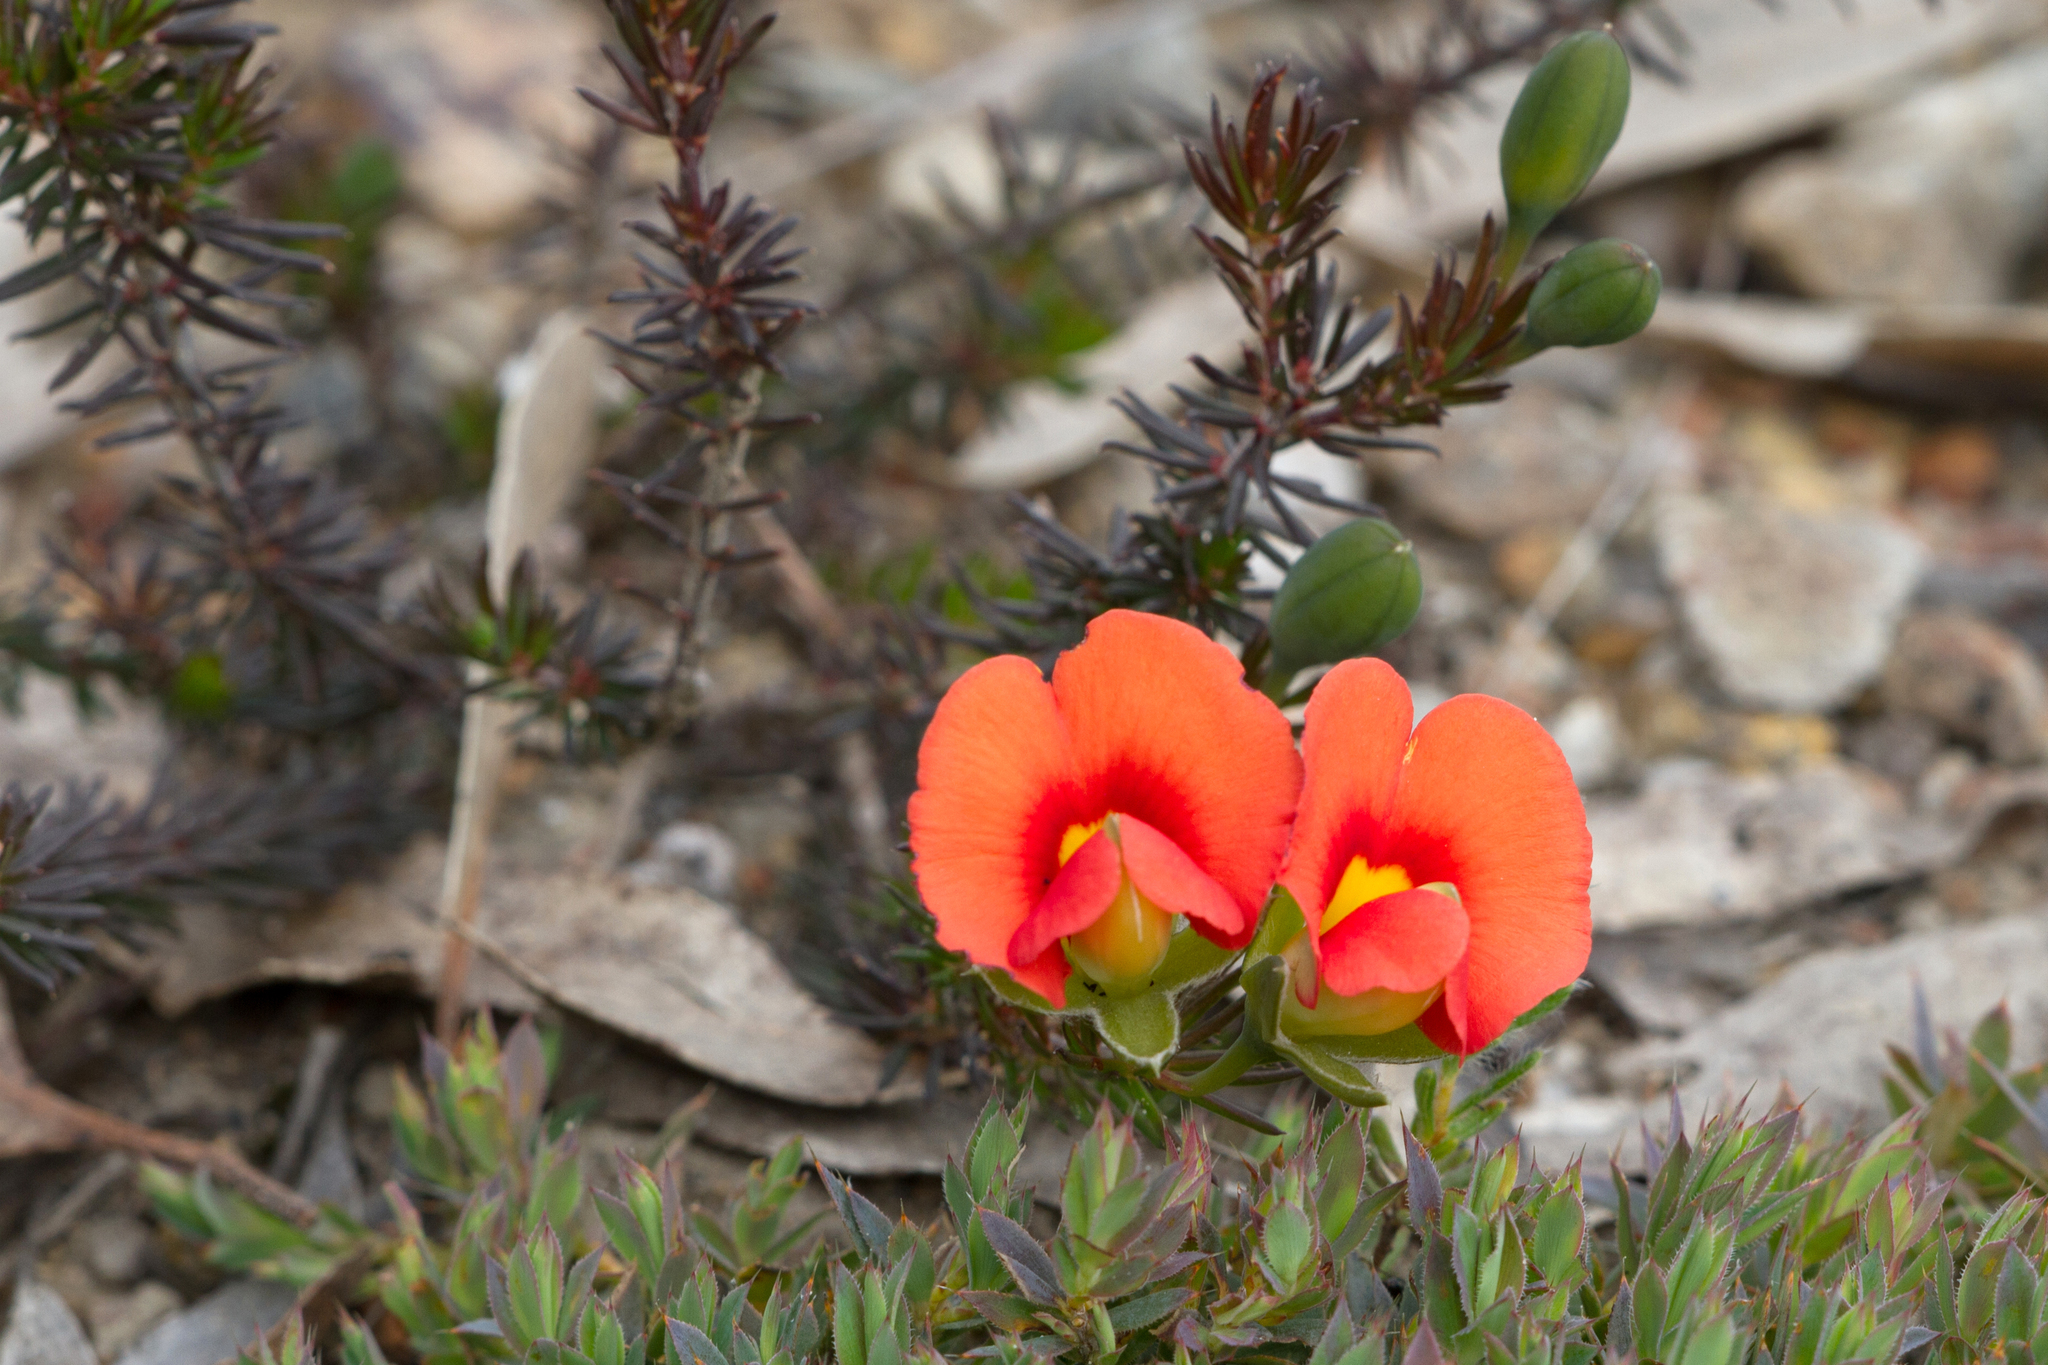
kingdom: Plantae
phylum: Tracheophyta
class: Magnoliopsida
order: Fabales
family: Fabaceae
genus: Gompholobium
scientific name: Gompholobium ecostatum
